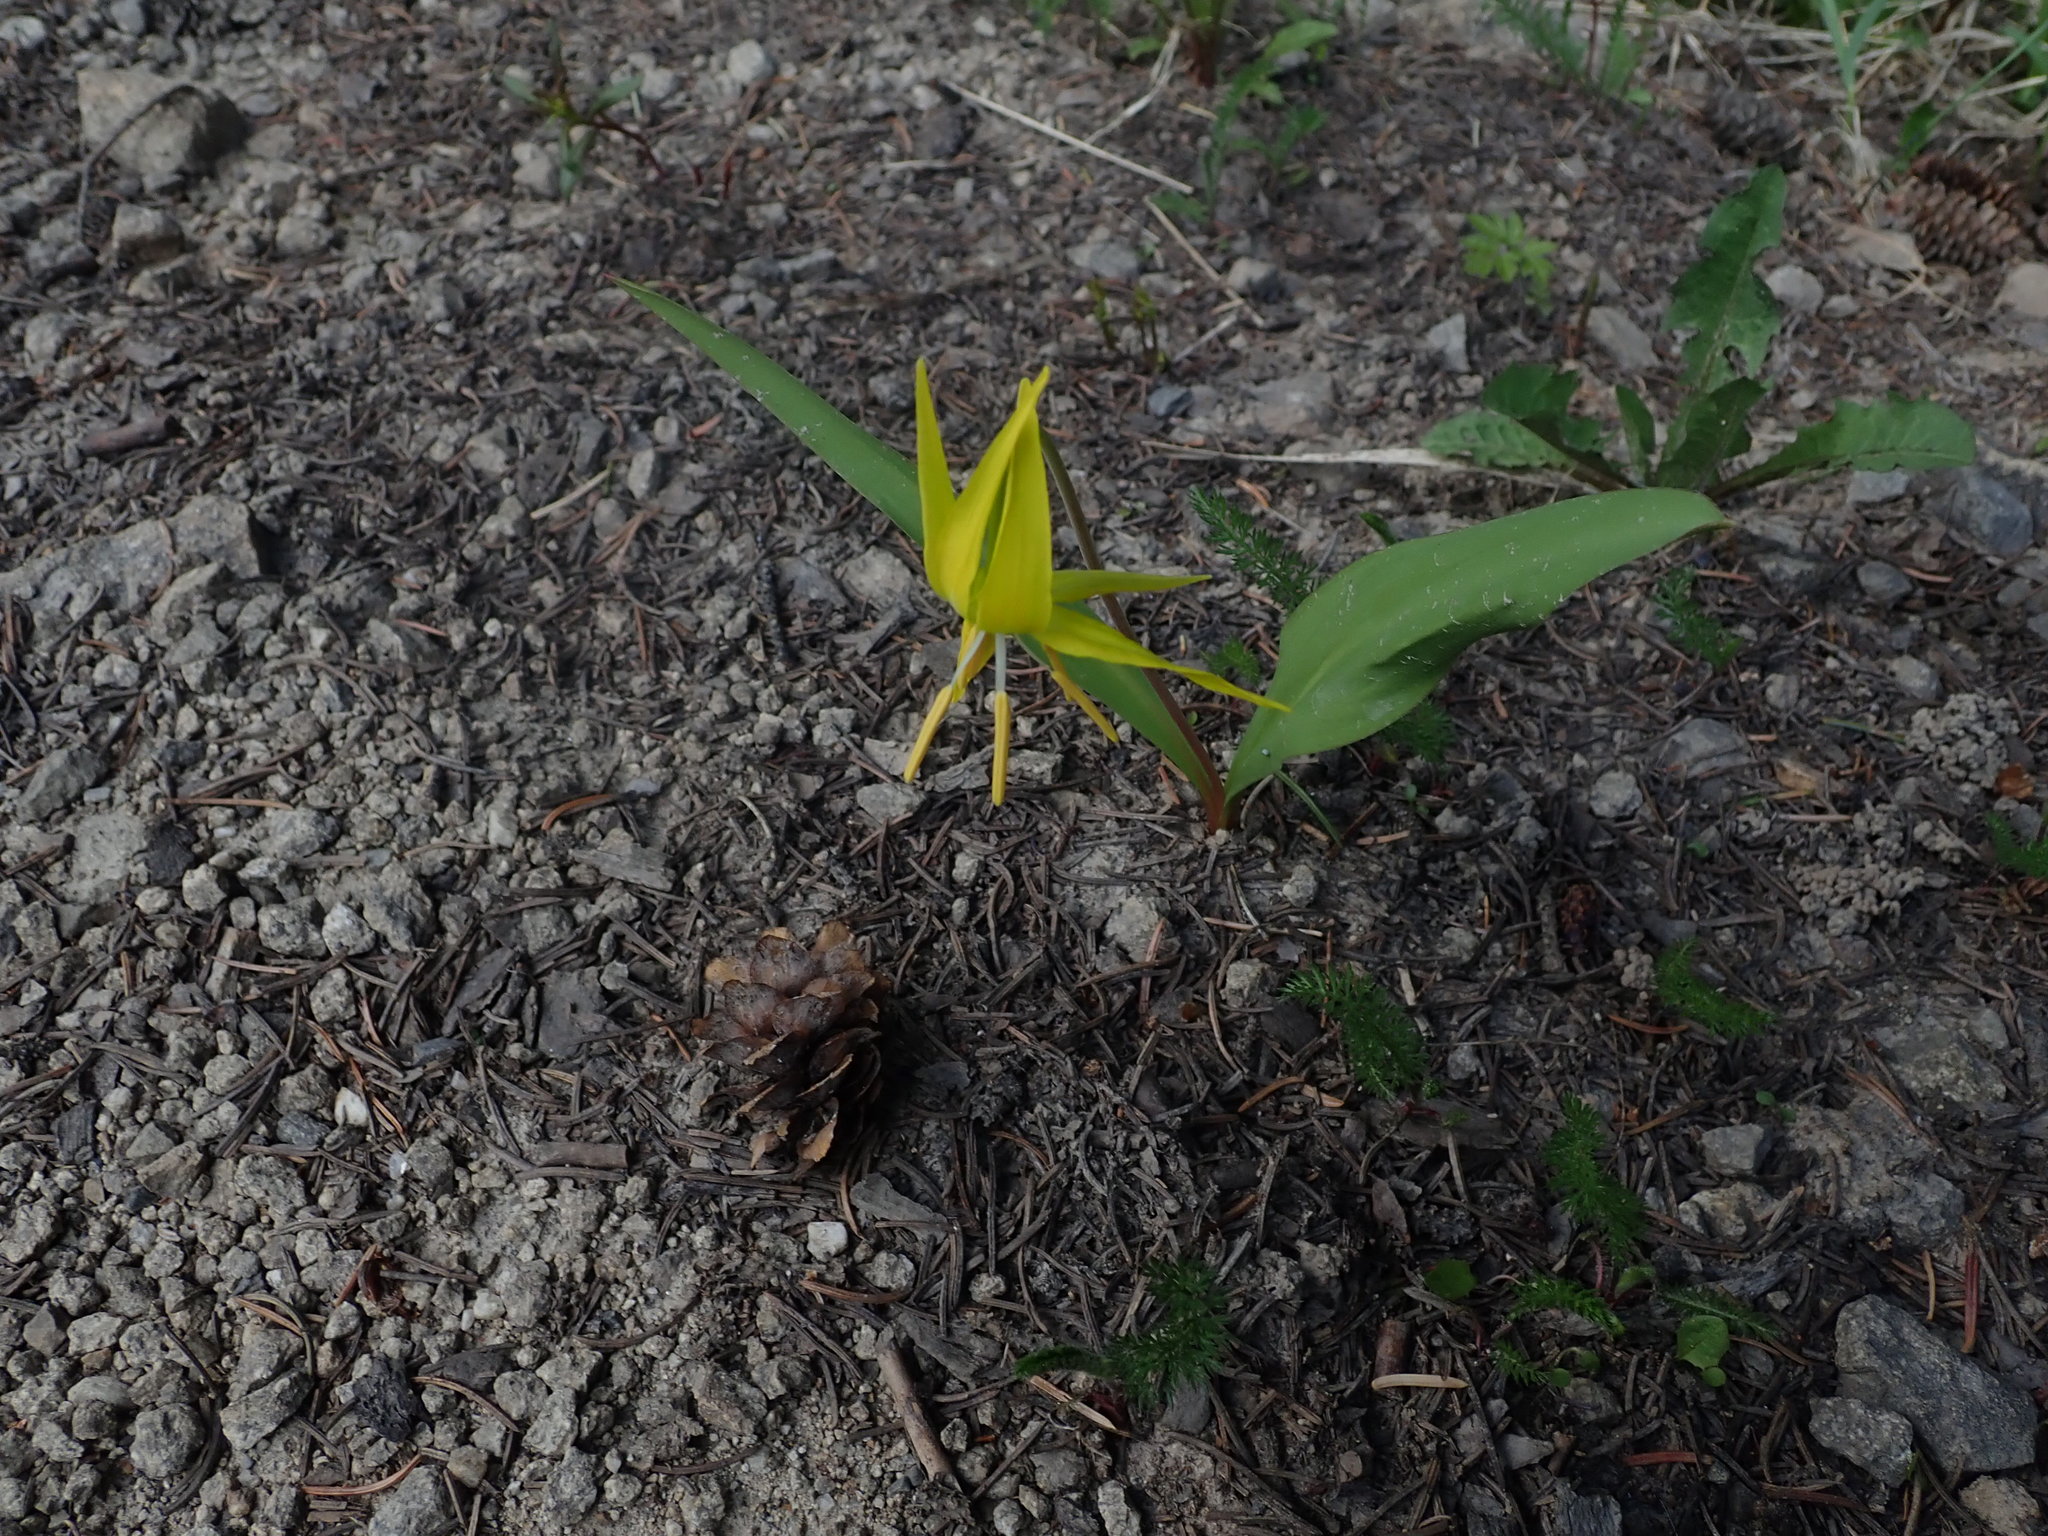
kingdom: Plantae
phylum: Tracheophyta
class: Liliopsida
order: Liliales
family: Liliaceae
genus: Erythronium
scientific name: Erythronium grandiflorum
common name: Avalanche-lily
